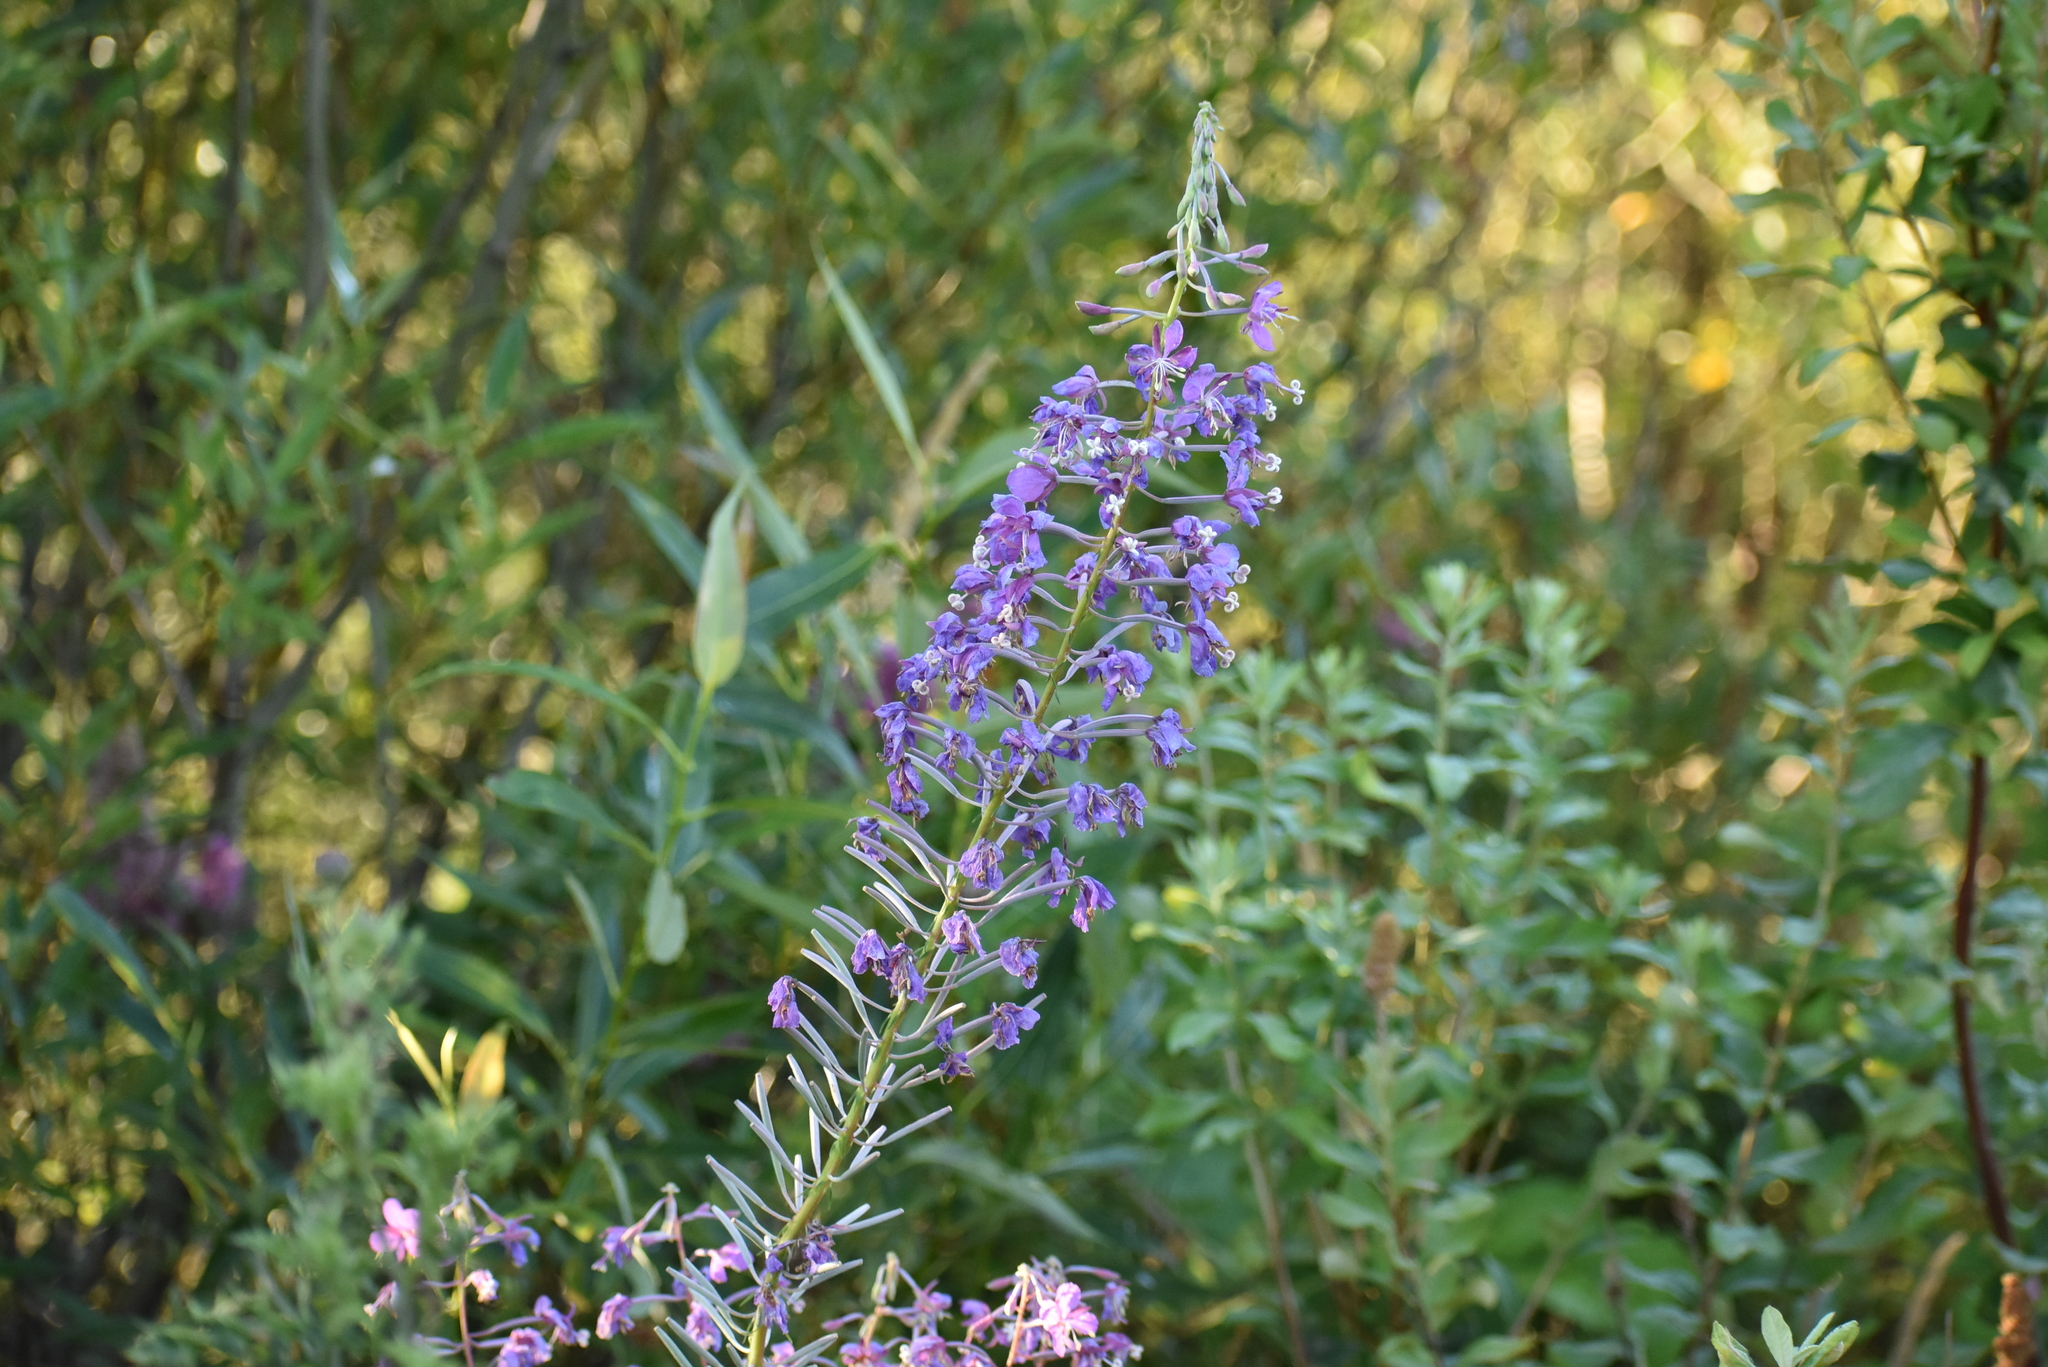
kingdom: Plantae
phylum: Tracheophyta
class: Magnoliopsida
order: Myrtales
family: Onagraceae
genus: Chamaenerion
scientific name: Chamaenerion angustifolium
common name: Fireweed
